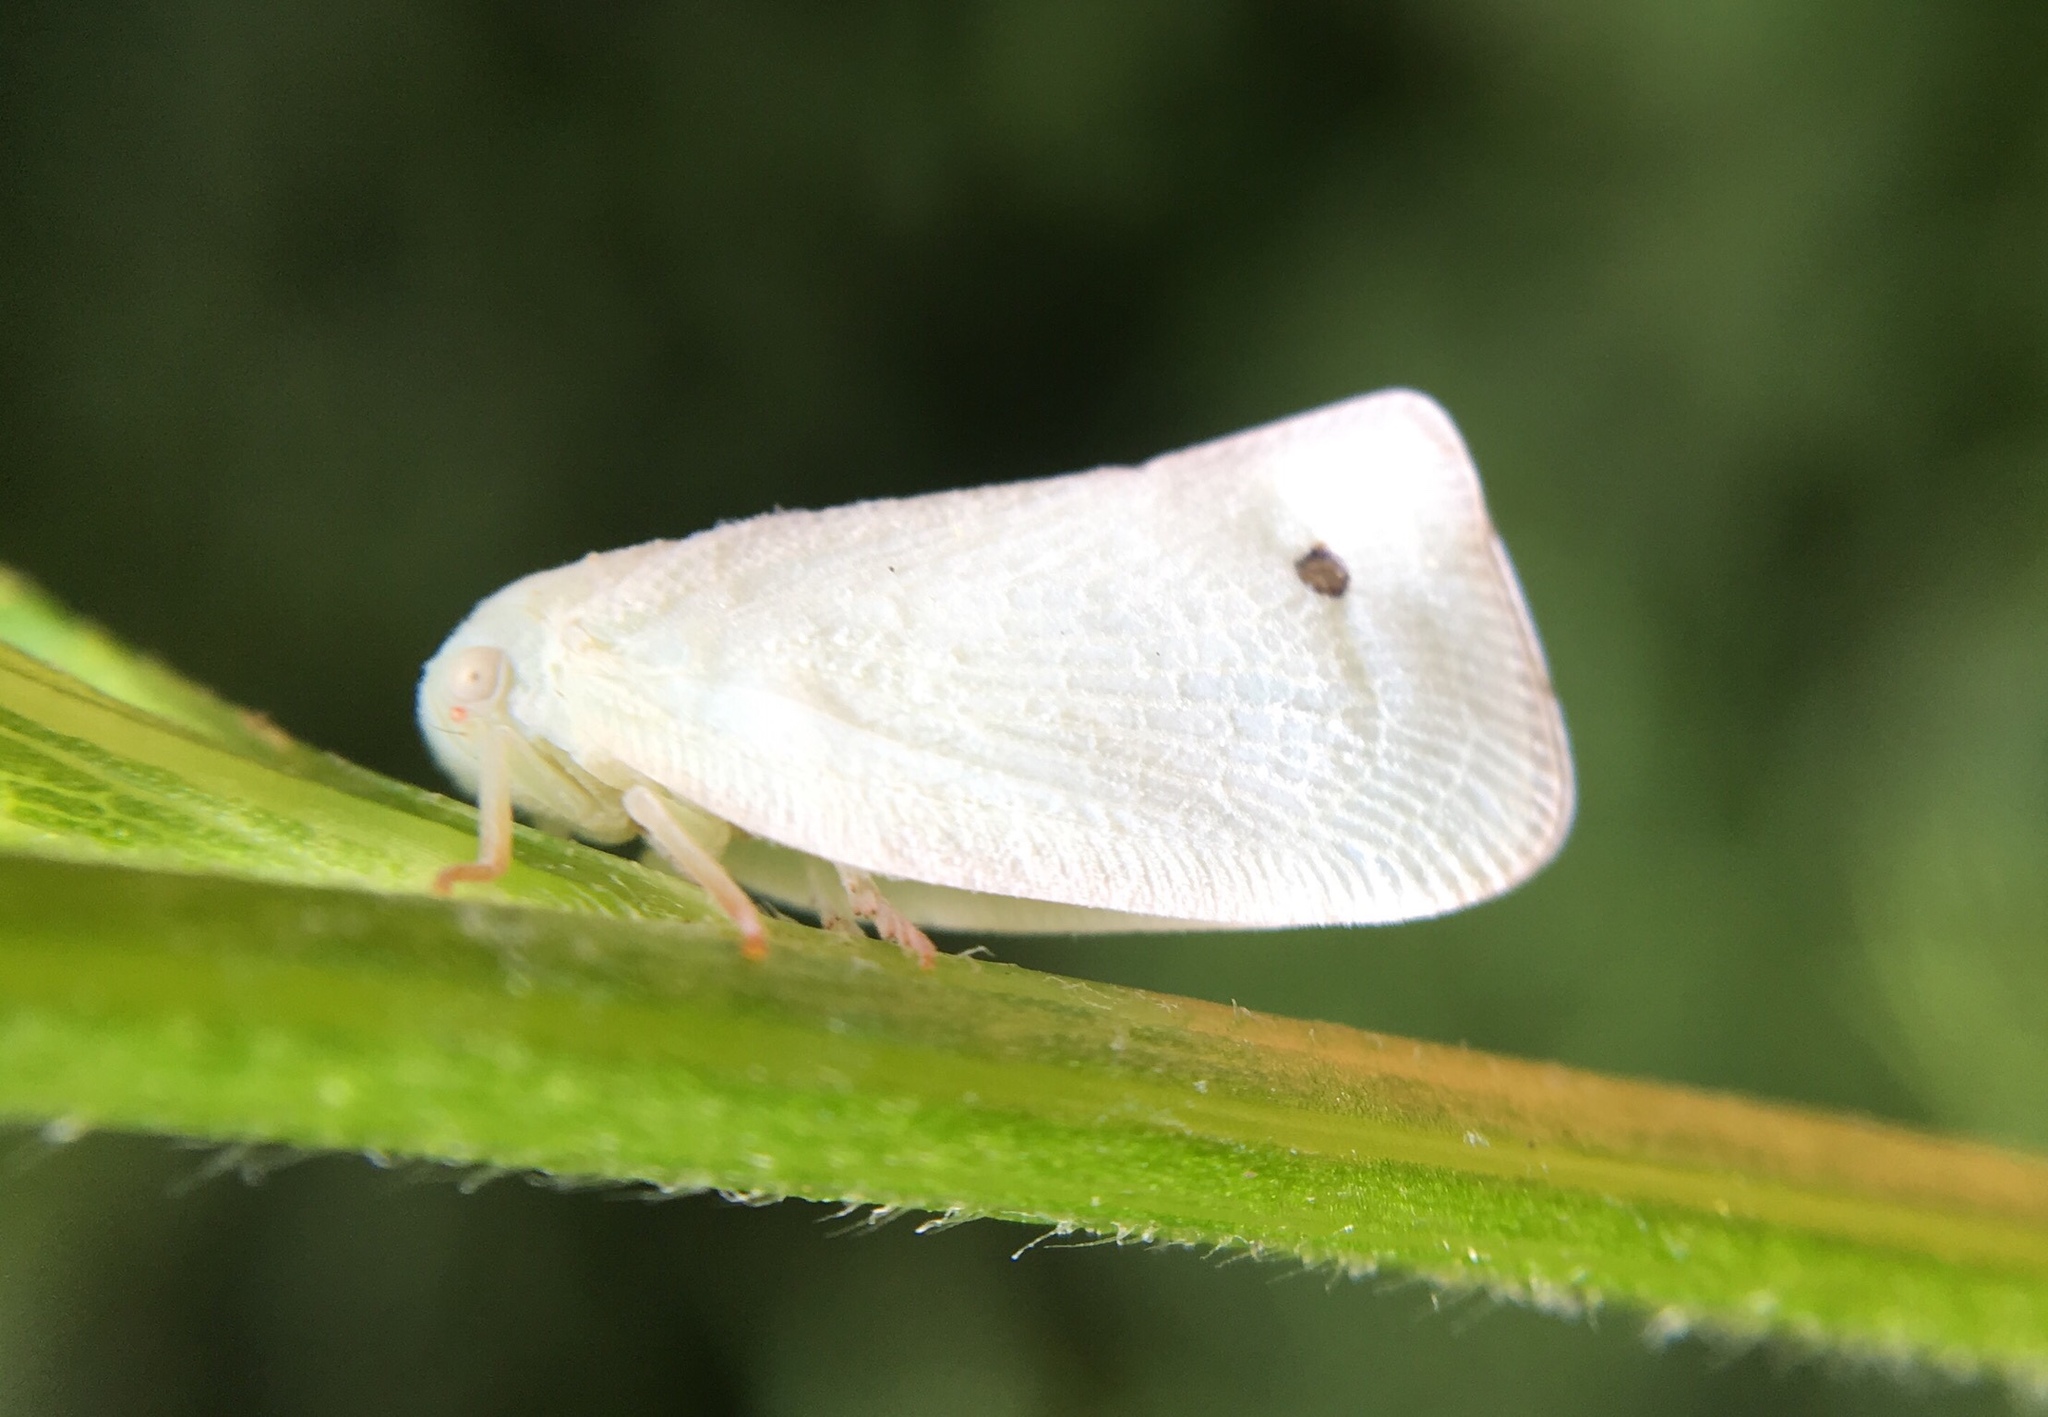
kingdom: Animalia
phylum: Arthropoda
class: Insecta
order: Hemiptera
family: Flatidae
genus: Flatormenis
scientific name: Flatormenis proxima
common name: Northern flatid planthopper
